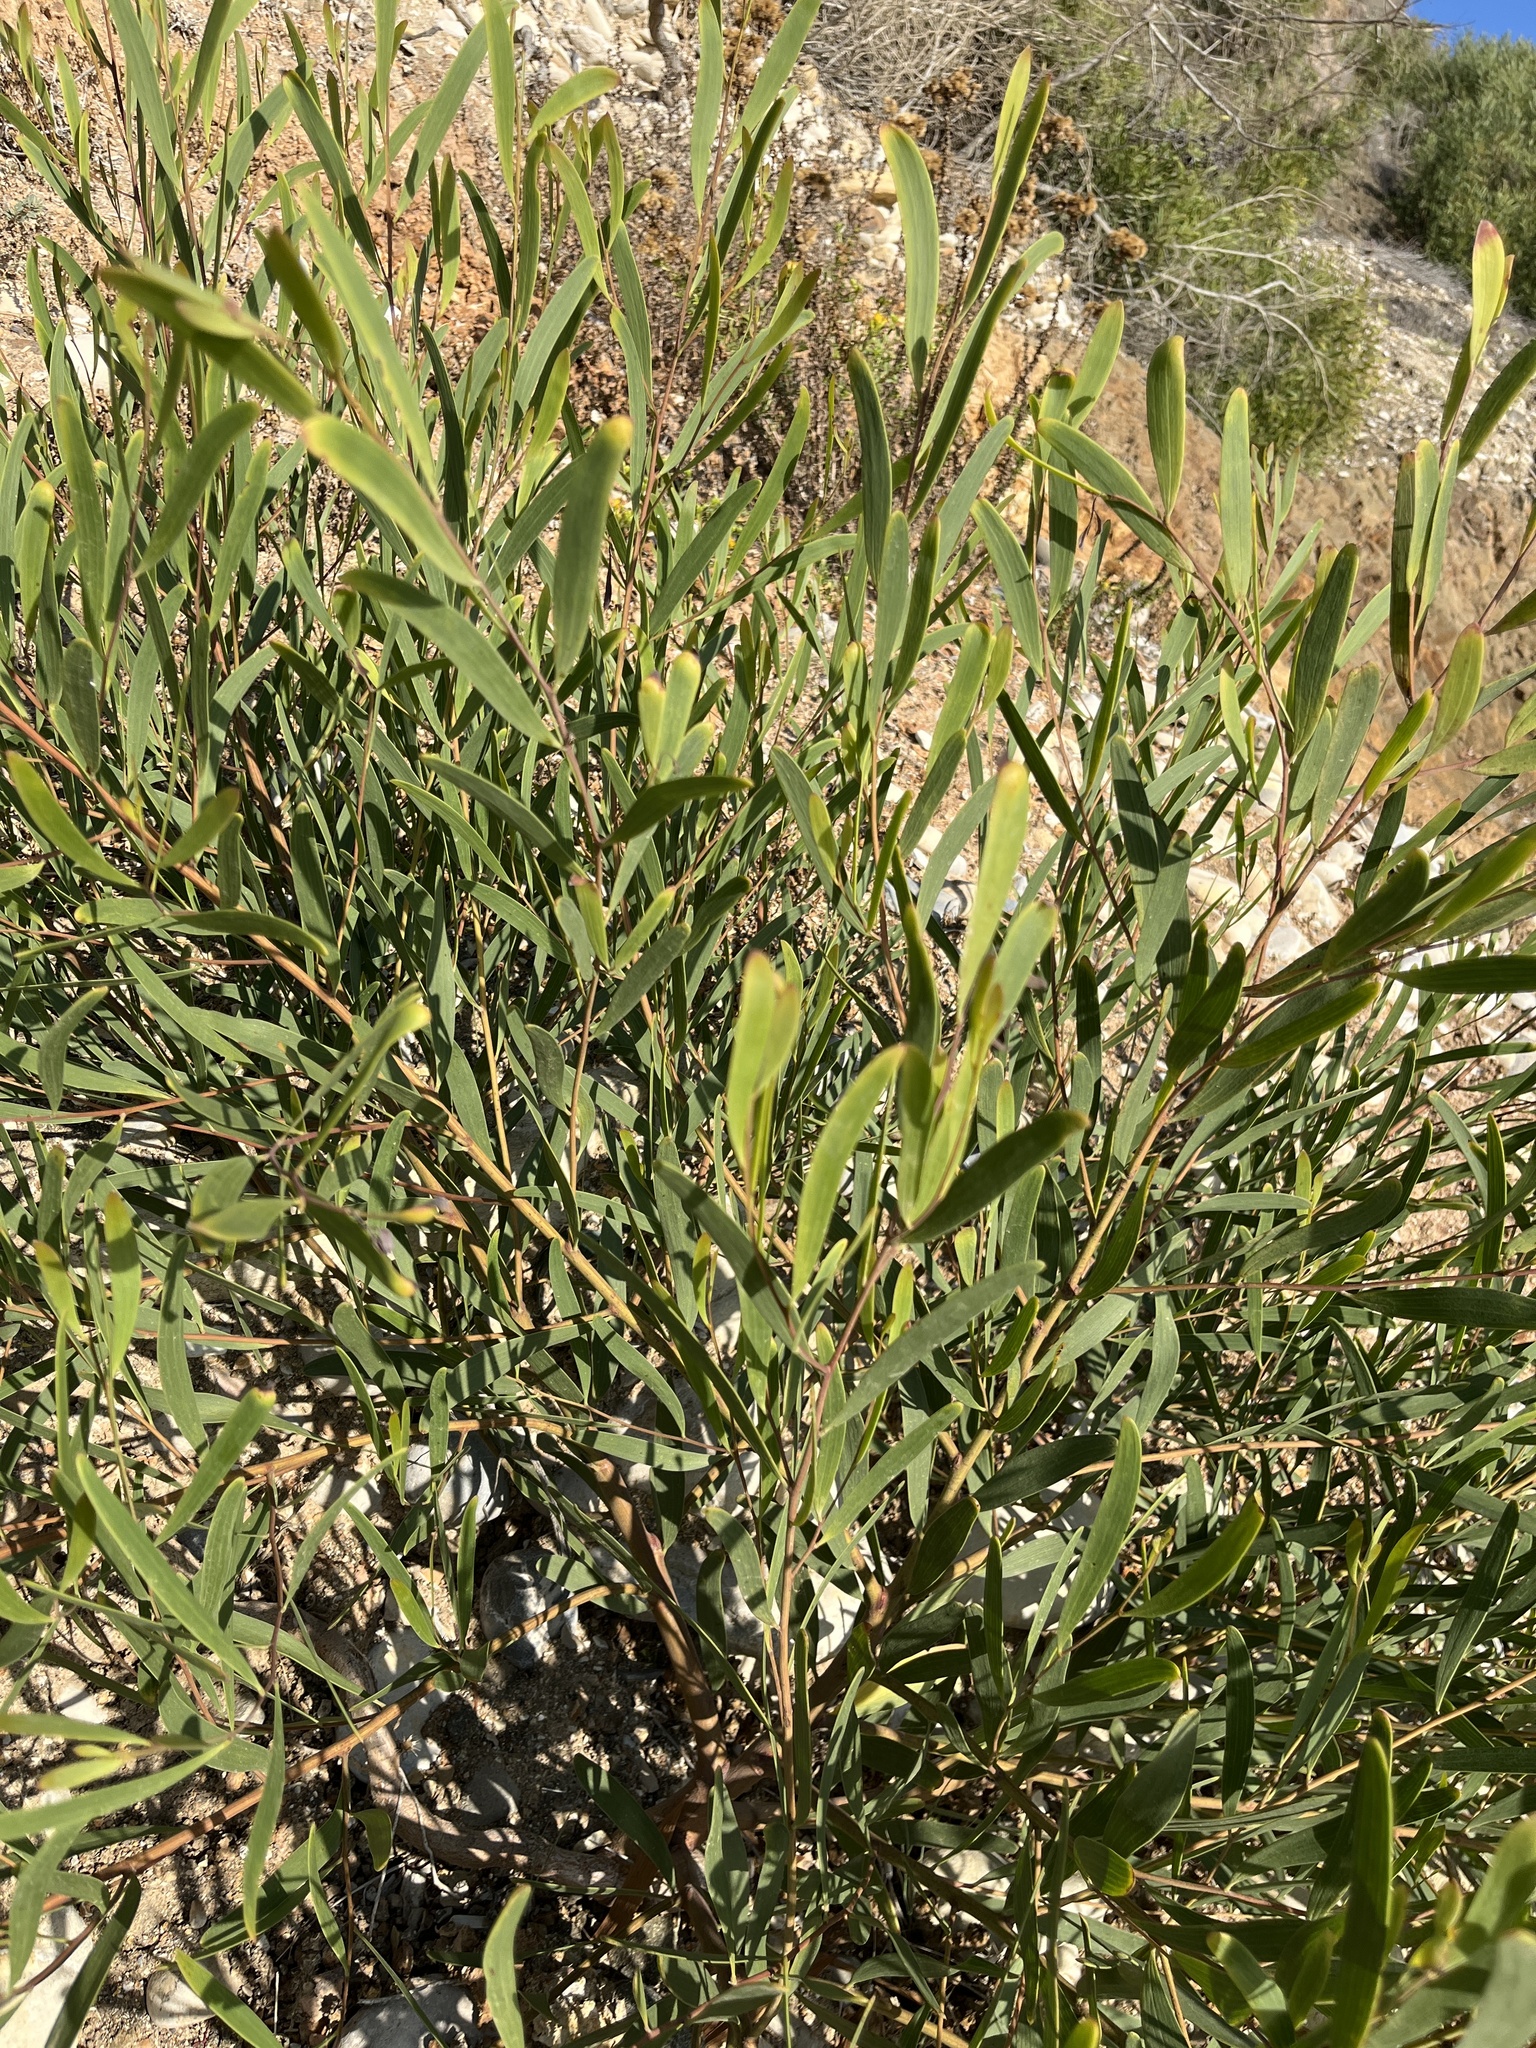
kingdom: Plantae
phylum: Tracheophyta
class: Magnoliopsida
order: Fabales
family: Fabaceae
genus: Acacia
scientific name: Acacia cyclops
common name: Coastal wattle
